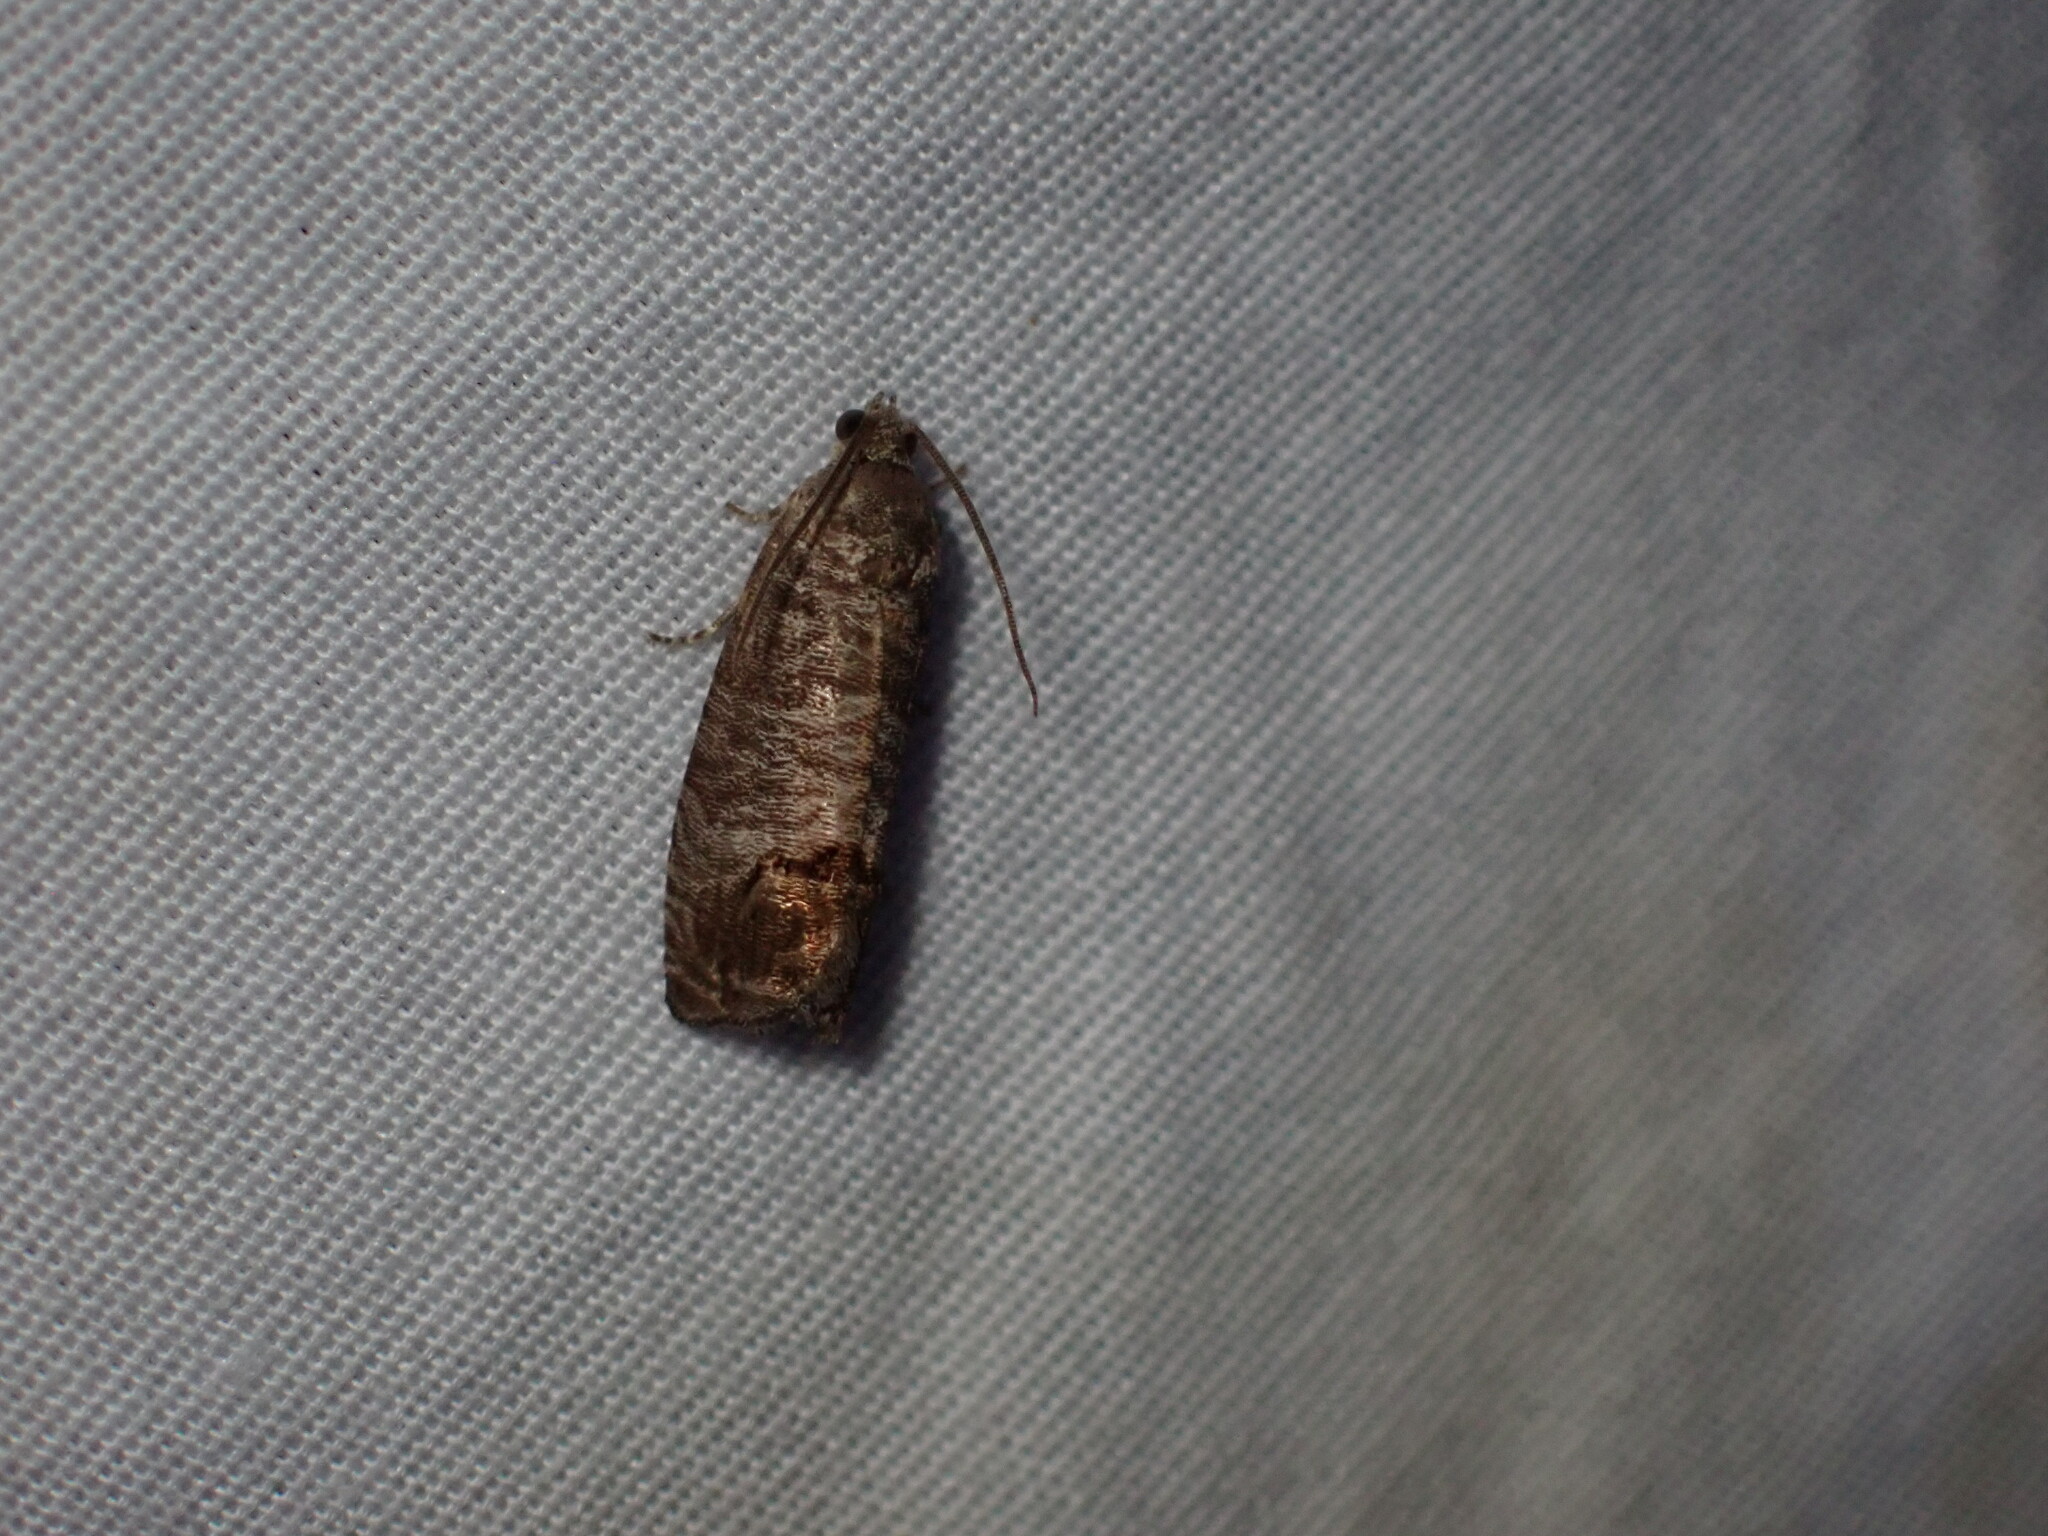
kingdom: Animalia
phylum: Arthropoda
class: Insecta
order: Lepidoptera
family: Tortricidae
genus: Cydia
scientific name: Cydia pomonella
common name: Codling moth
